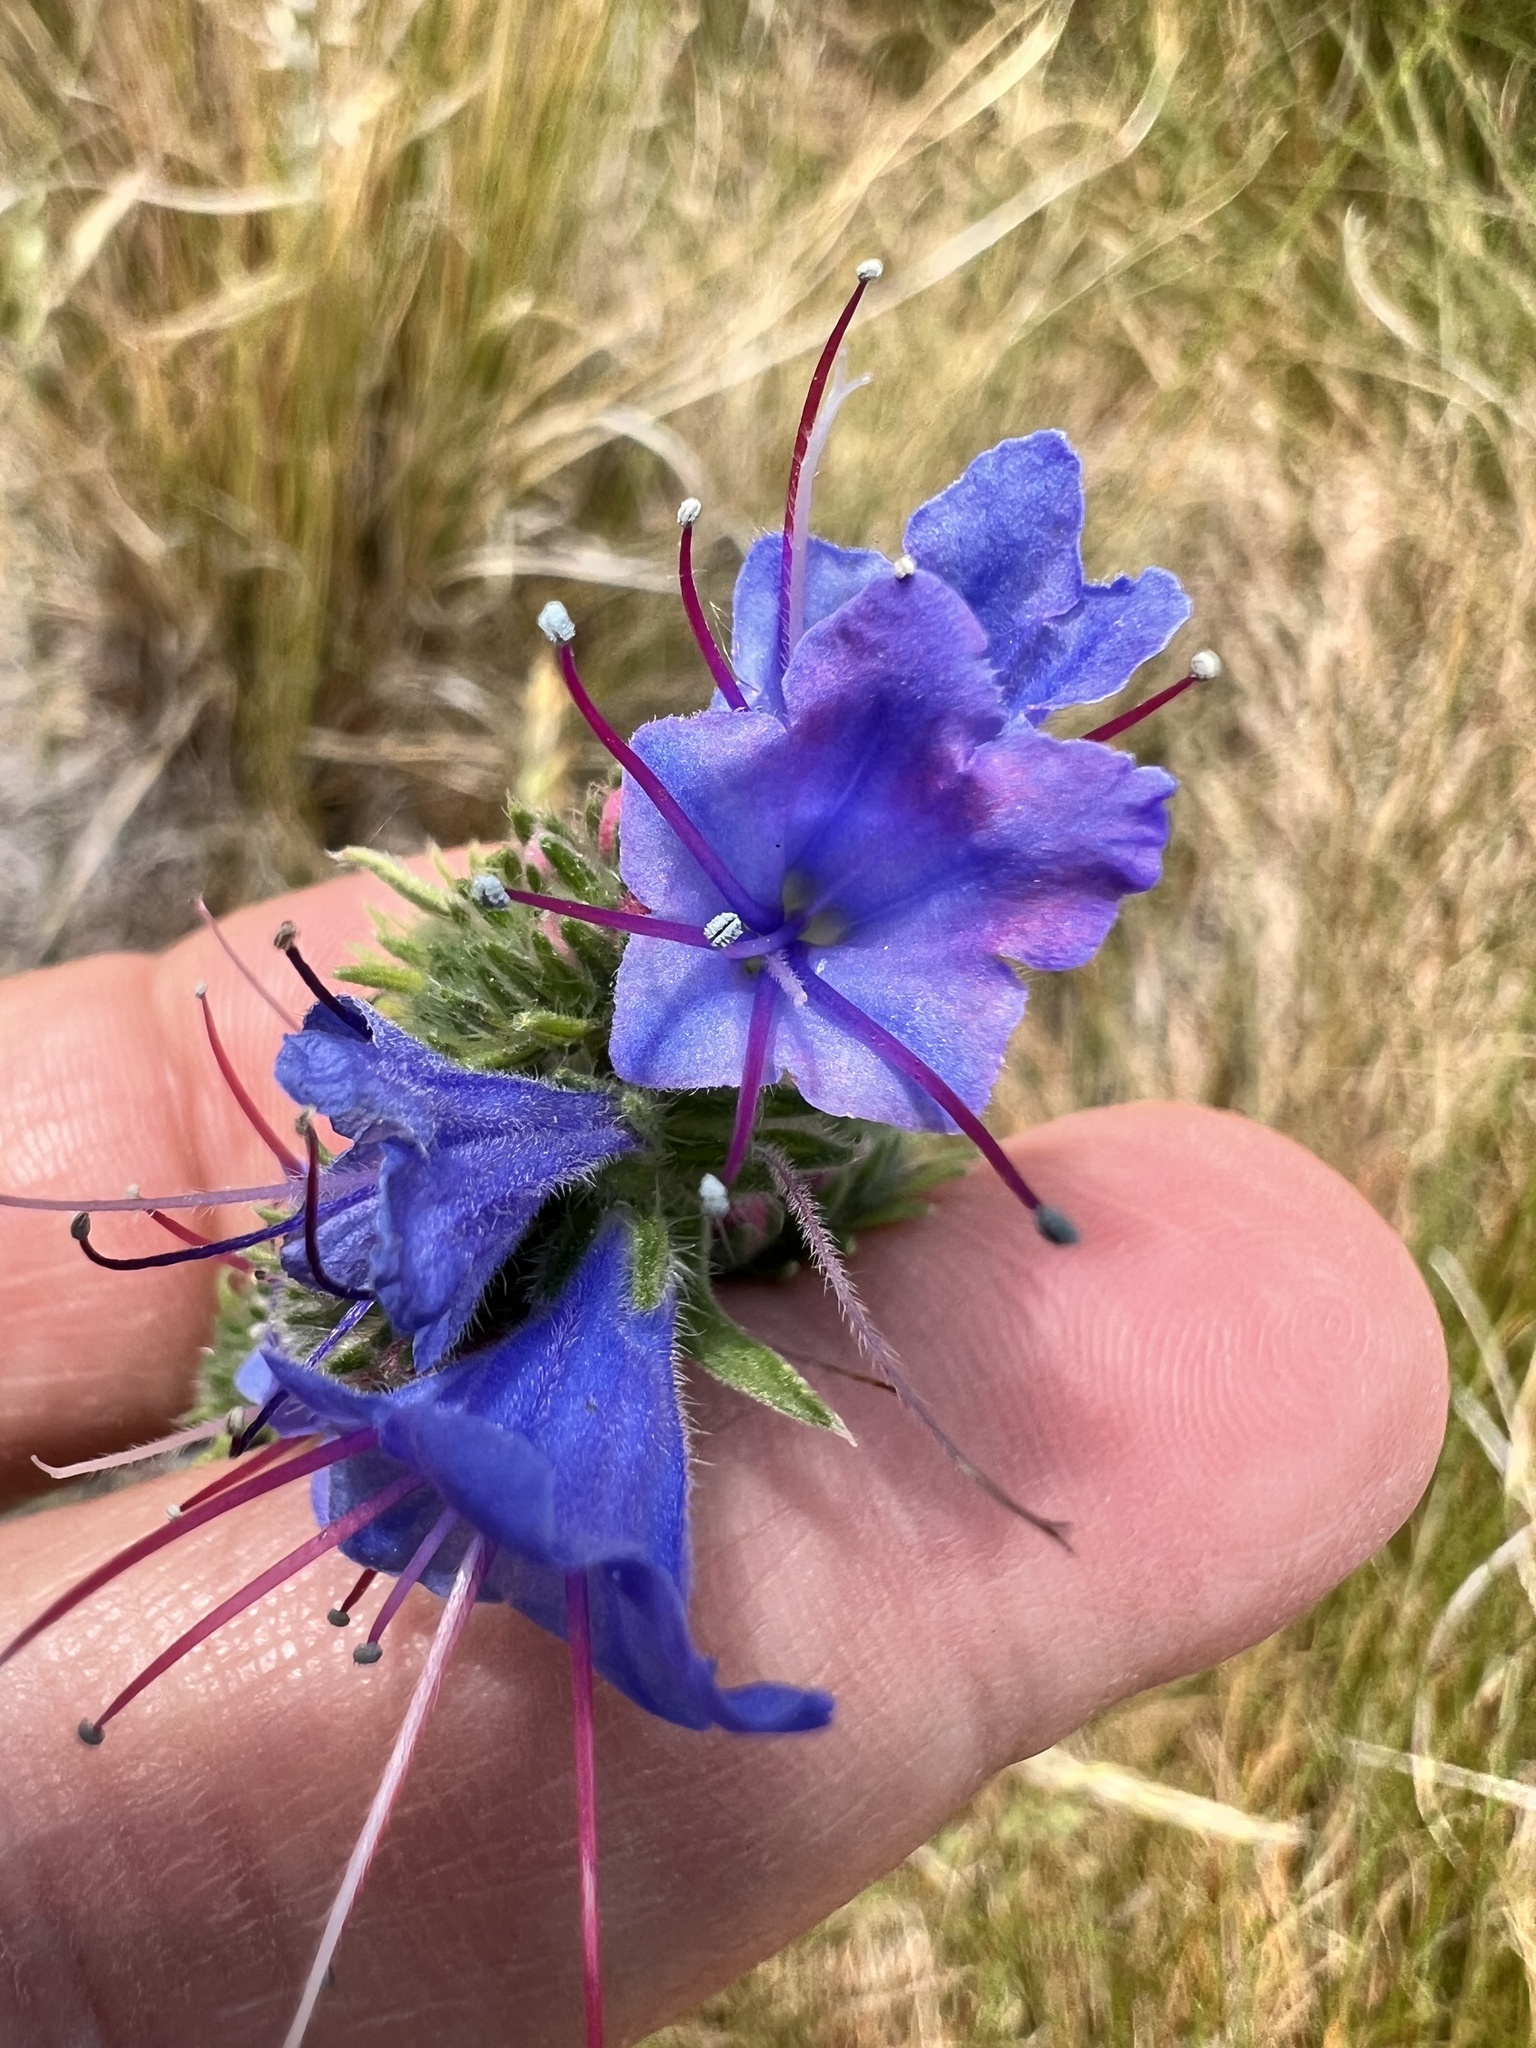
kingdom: Plantae
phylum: Tracheophyta
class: Magnoliopsida
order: Boraginales
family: Boraginaceae
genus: Echium
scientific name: Echium vulgare
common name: Common viper's bugloss
